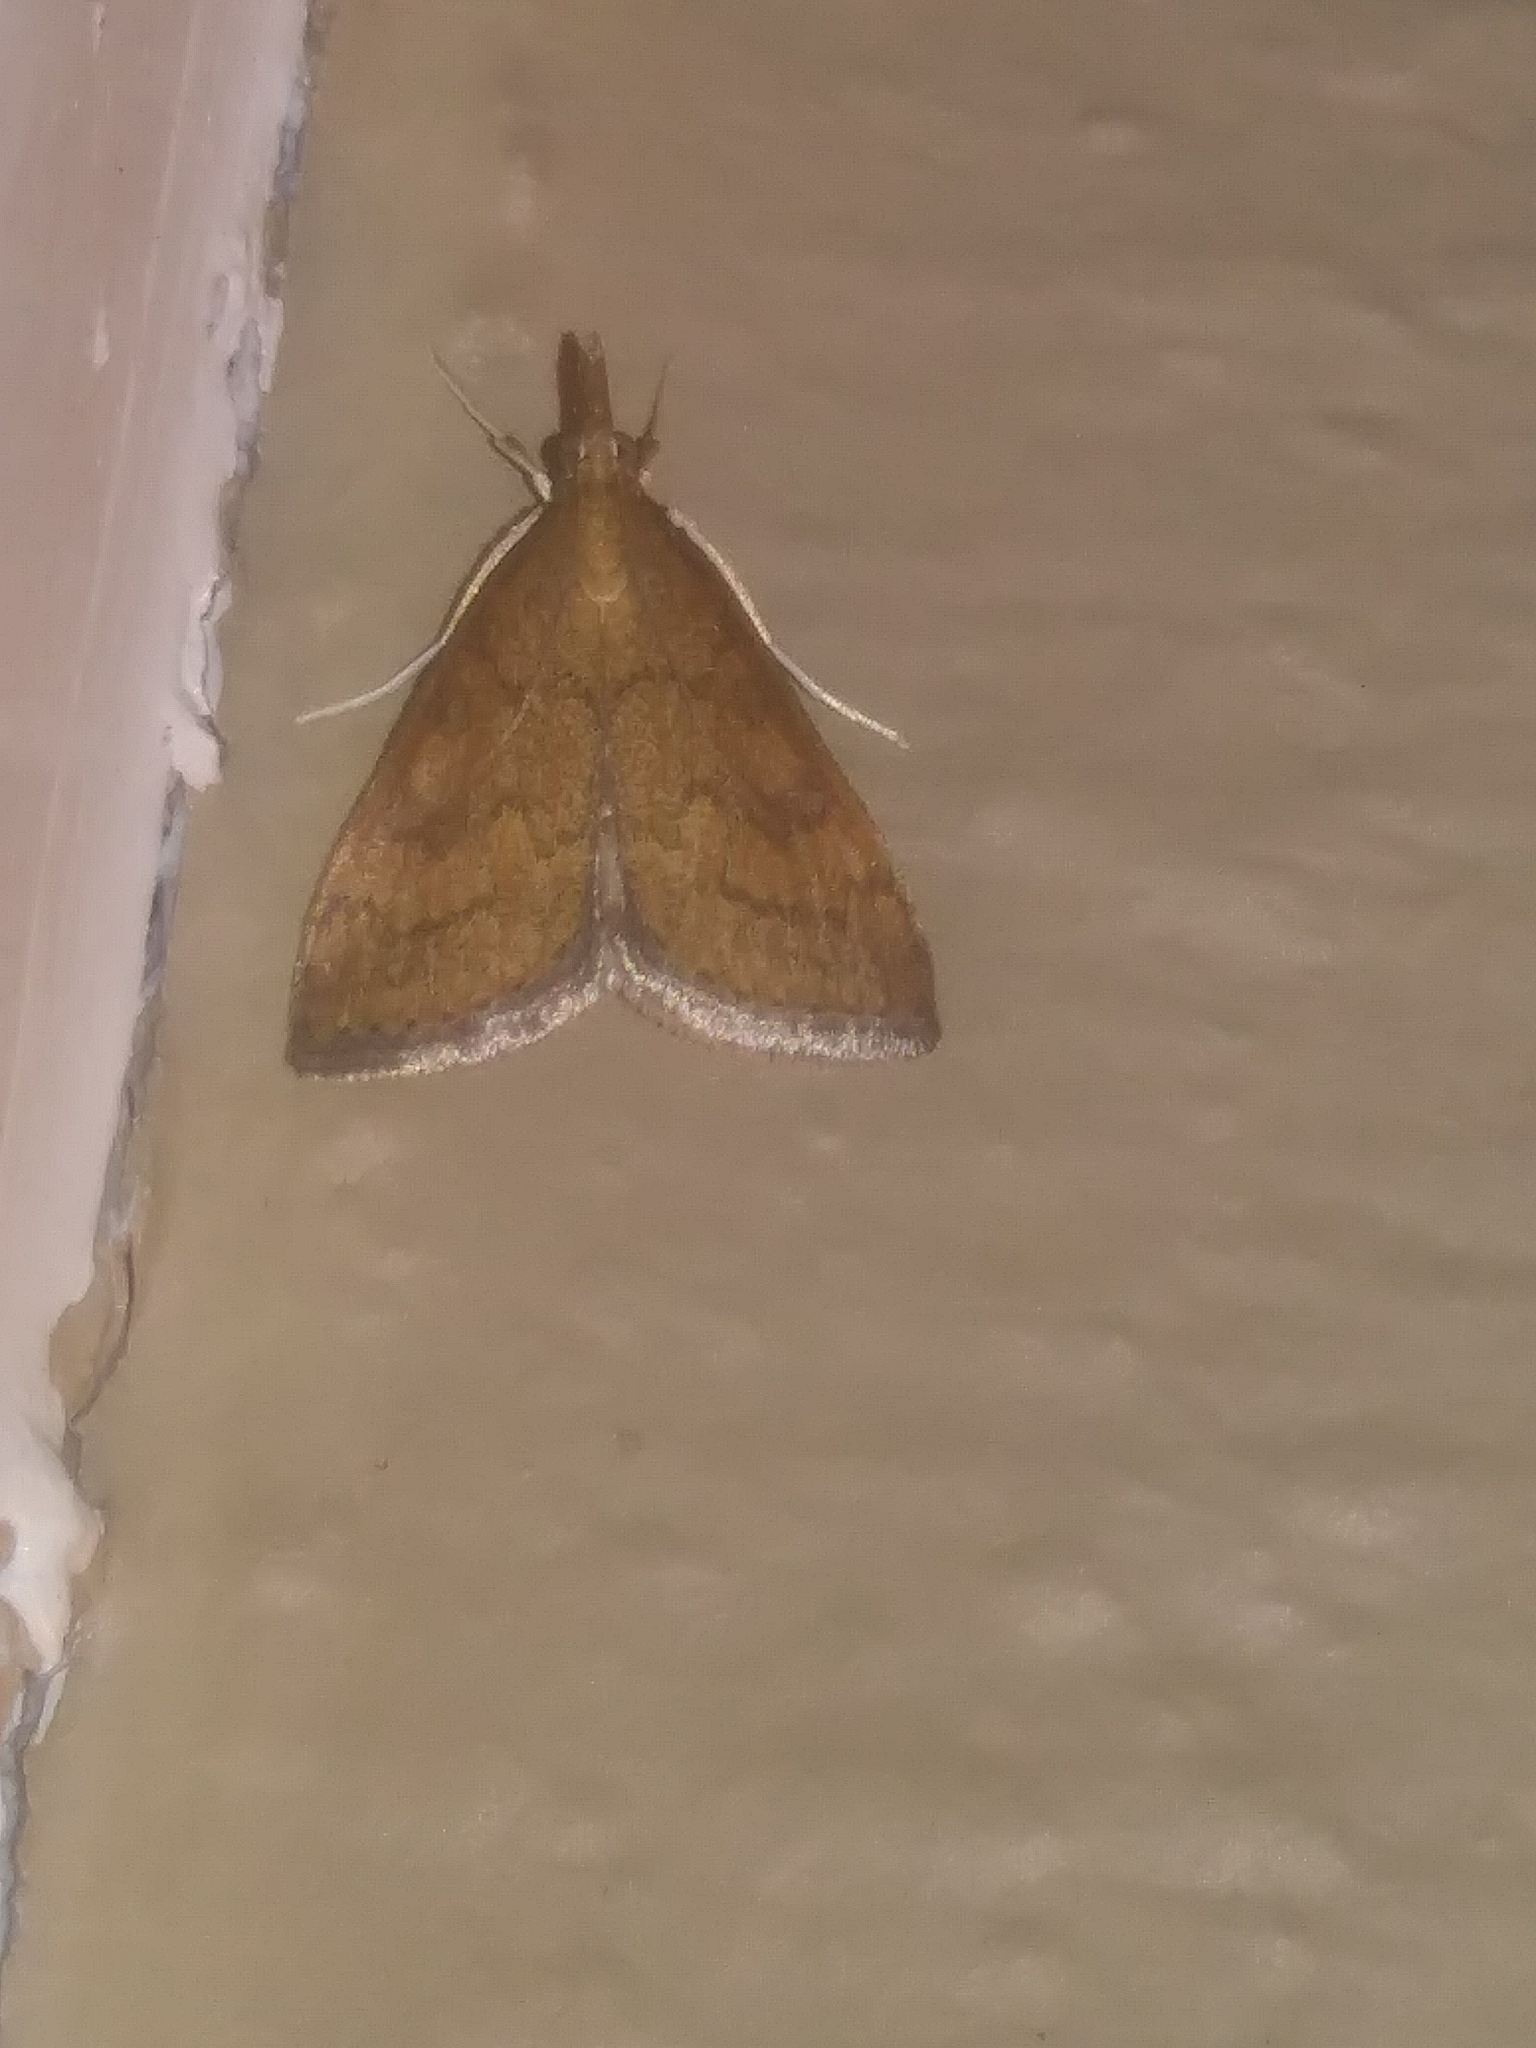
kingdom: Animalia
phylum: Arthropoda
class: Insecta
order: Lepidoptera
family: Crambidae
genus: Udea
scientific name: Udea rubigalis
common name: Celery leaftier moth
